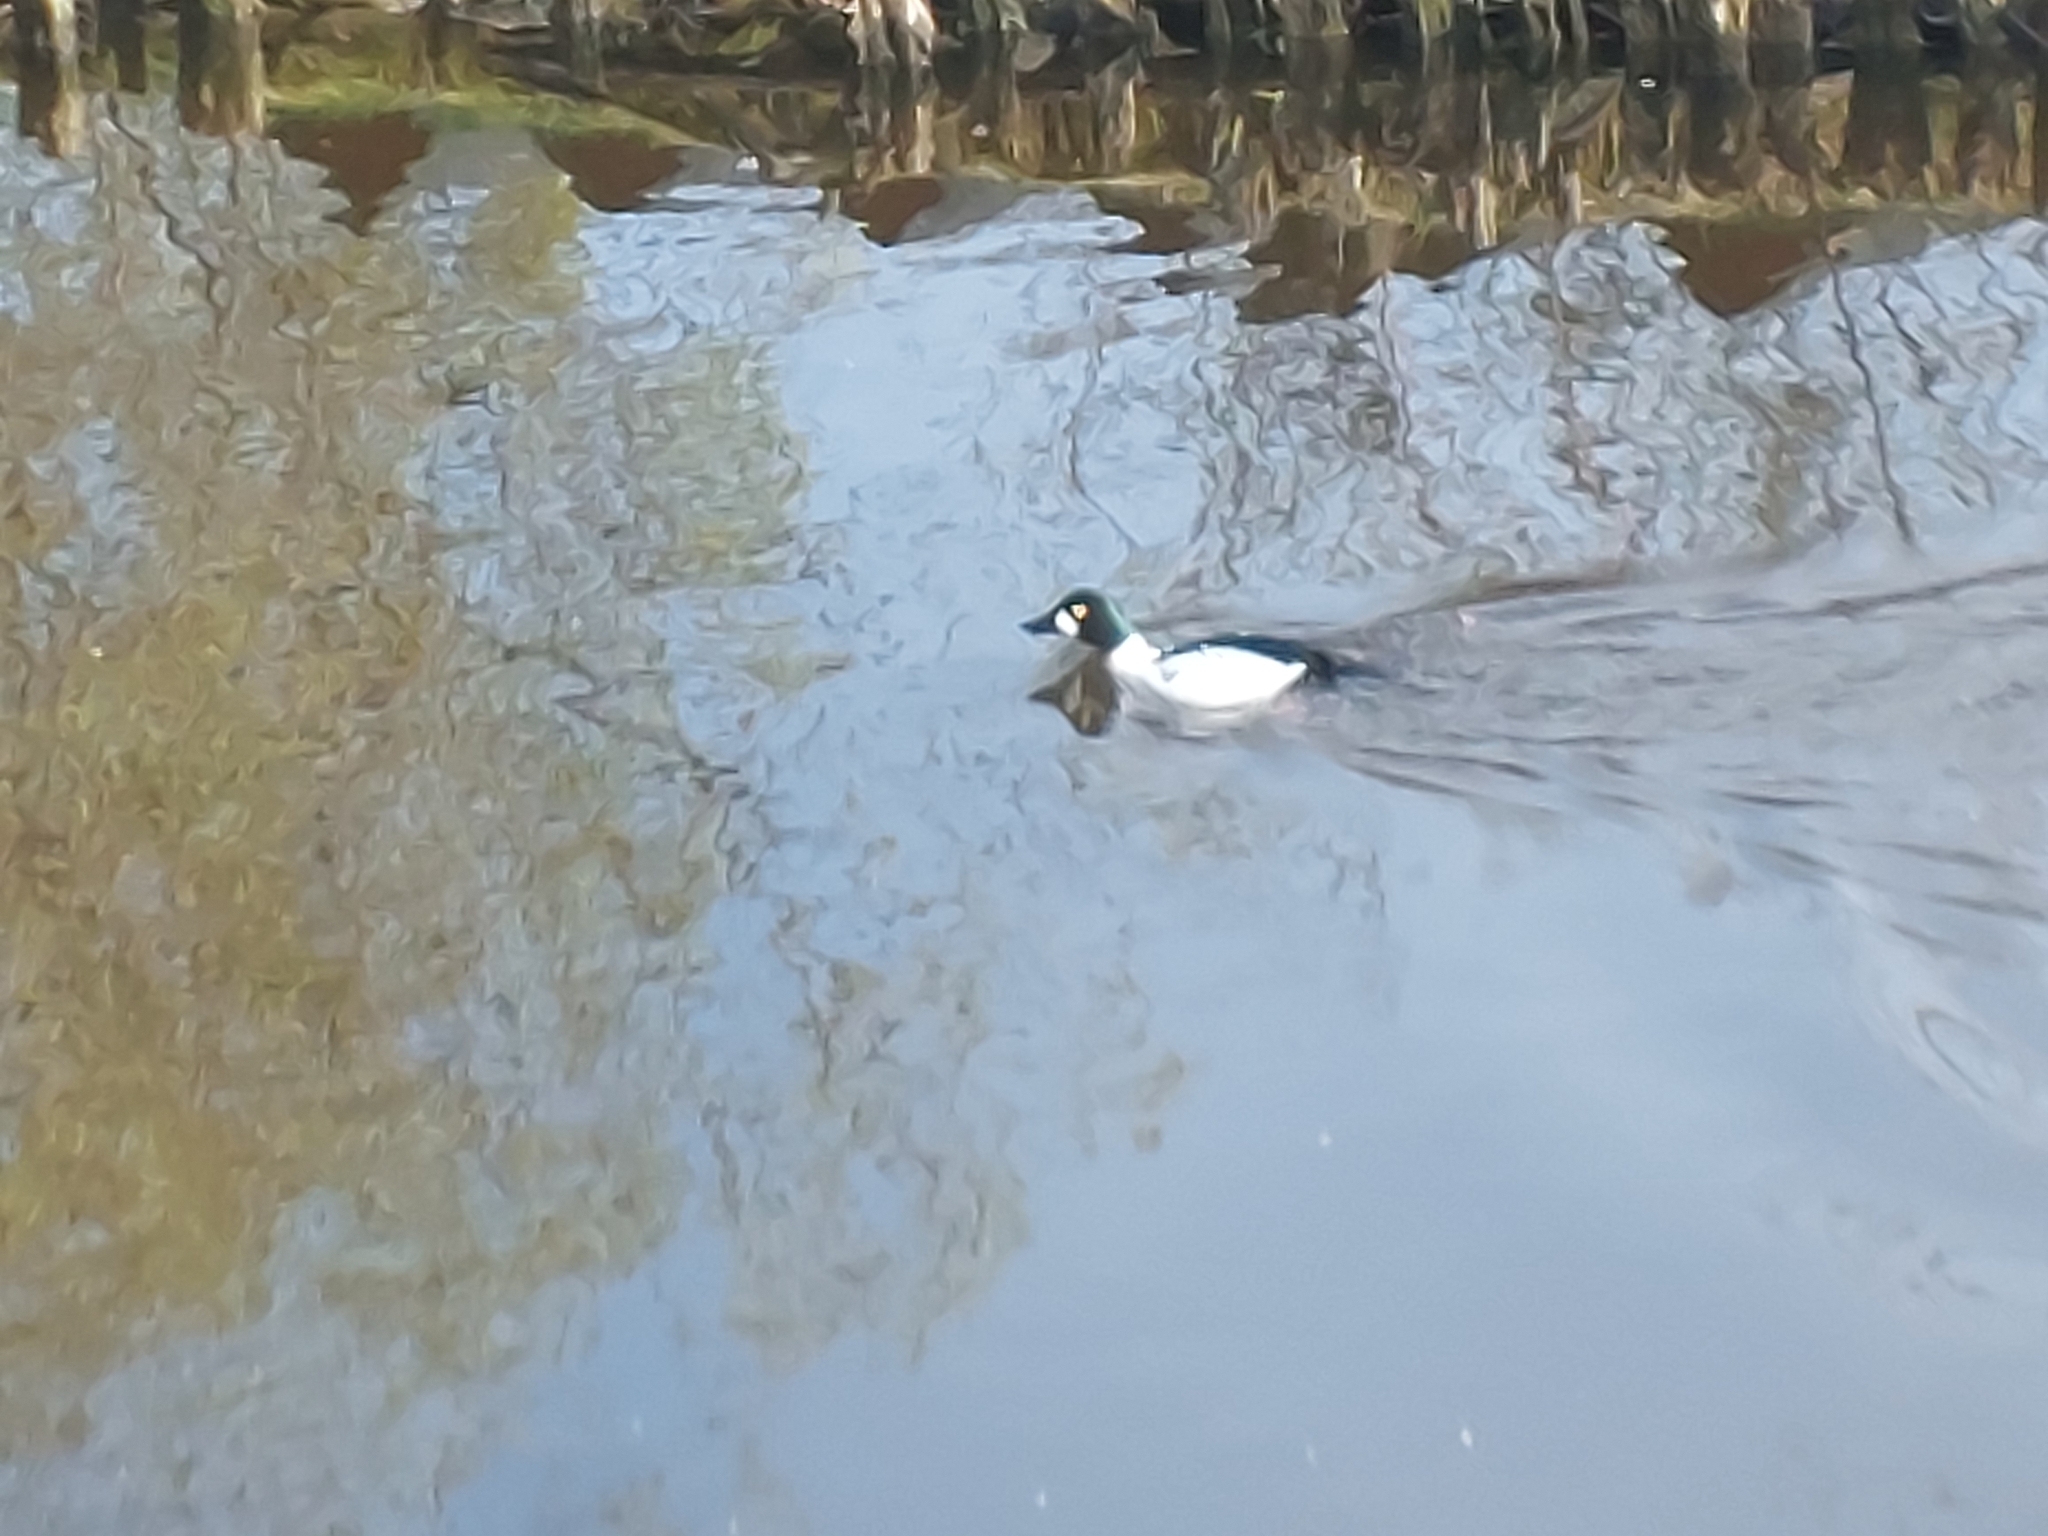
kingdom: Animalia
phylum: Chordata
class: Aves
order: Anseriformes
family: Anatidae
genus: Bucephala
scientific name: Bucephala clangula
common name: Common goldeneye
